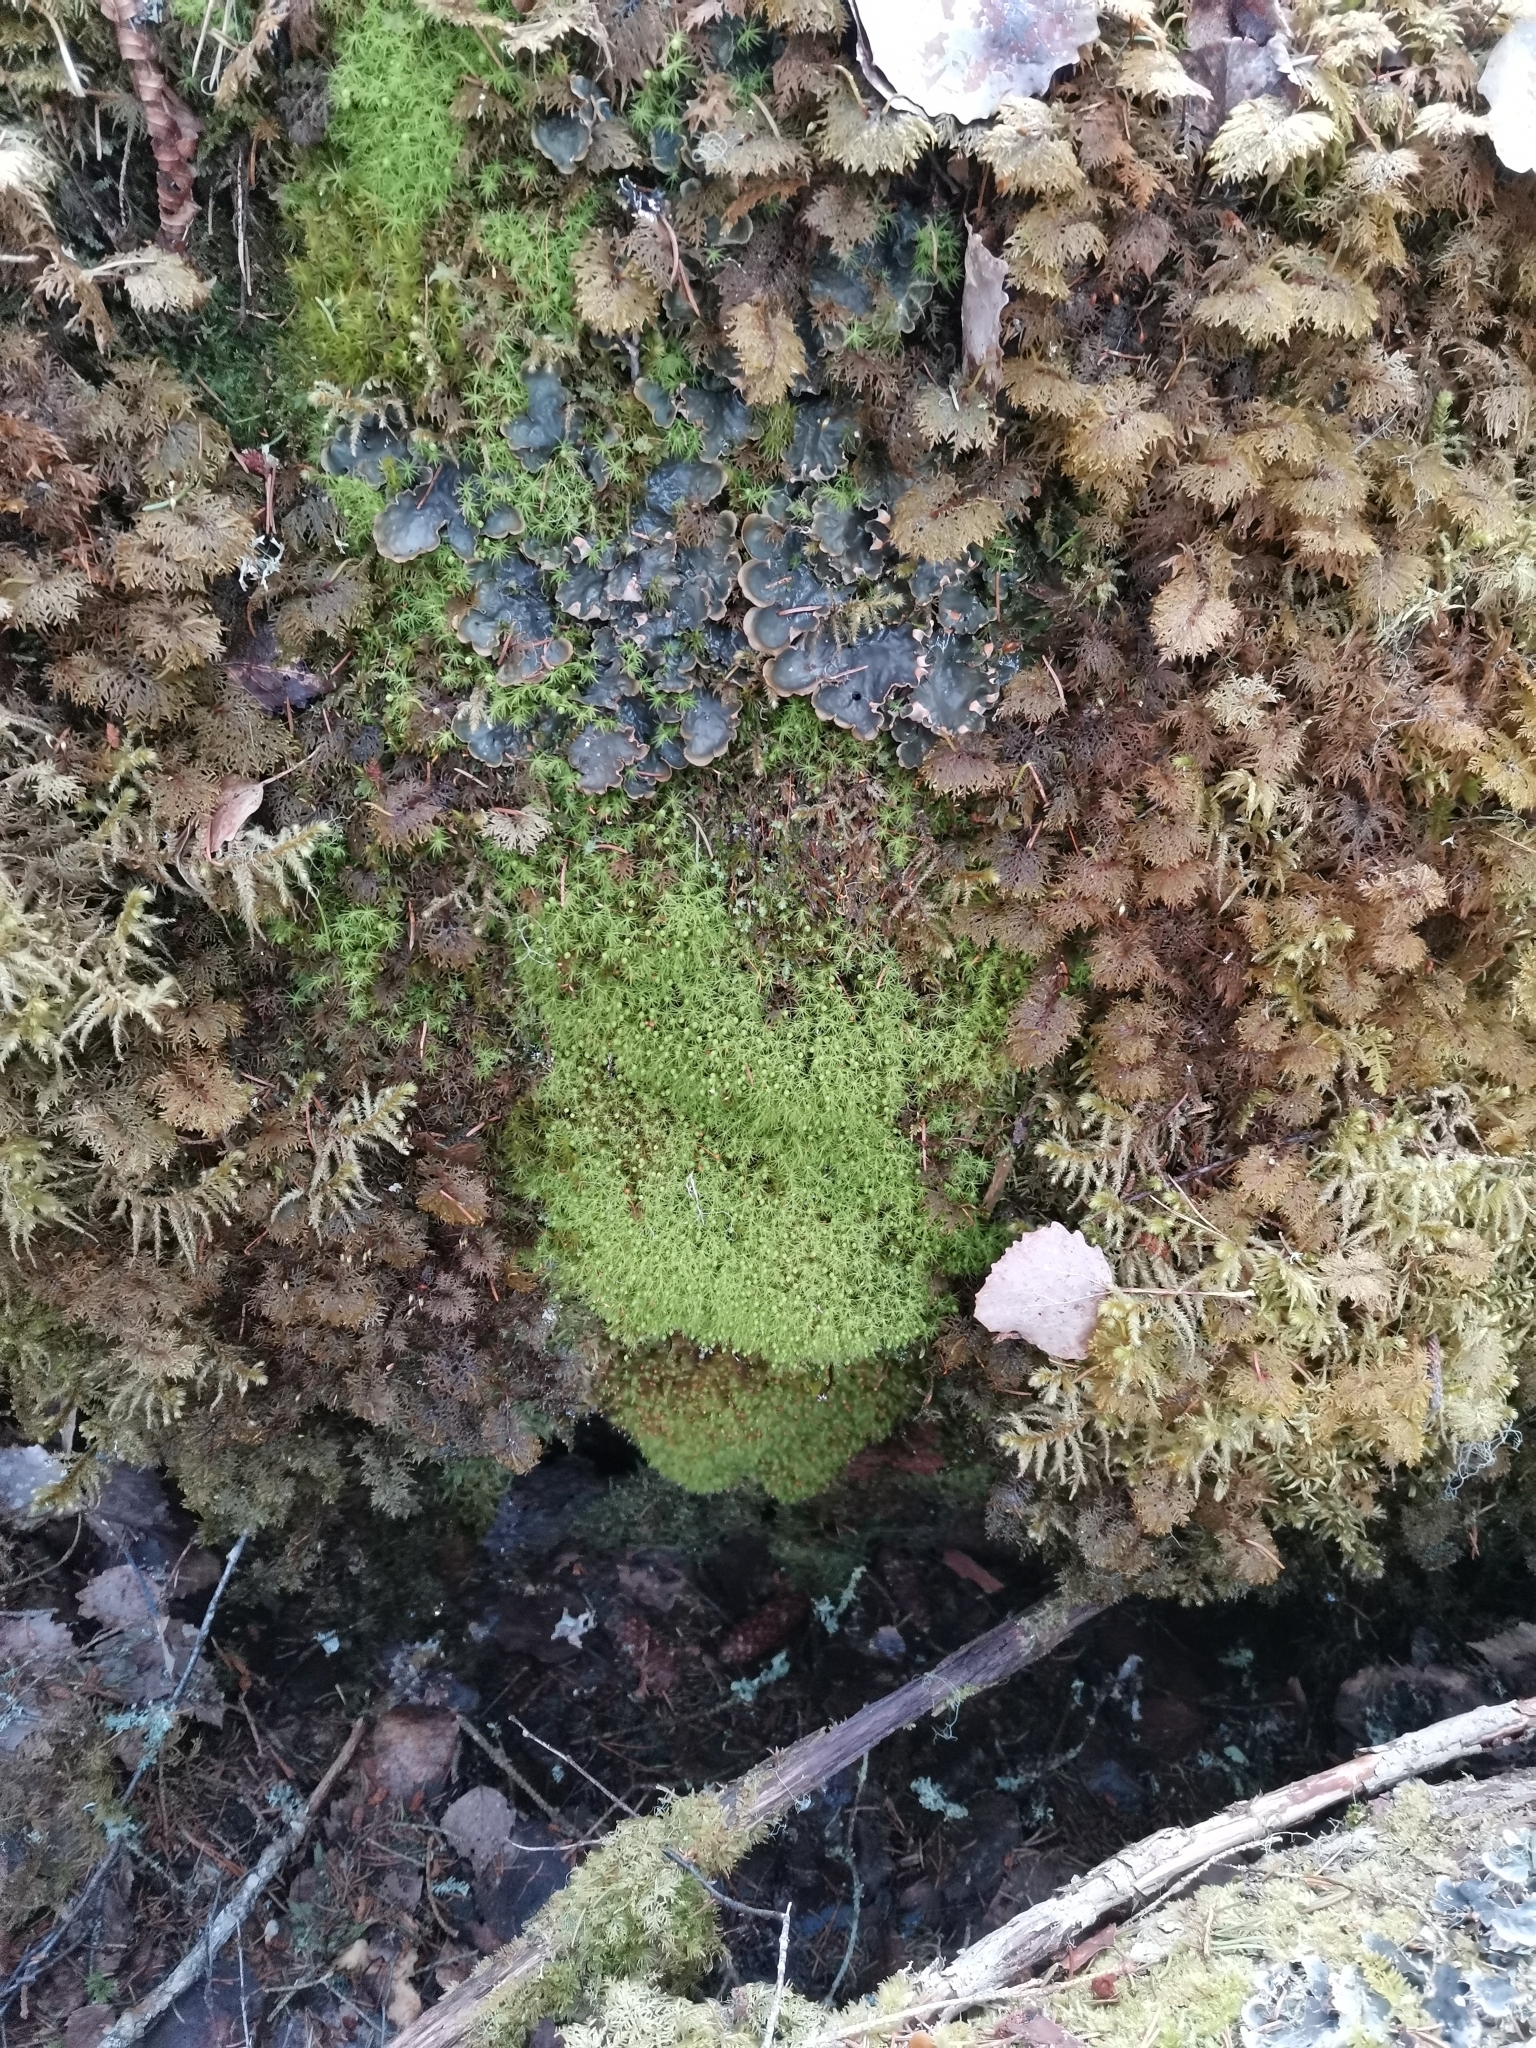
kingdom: Plantae
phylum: Bryophyta
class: Bryopsida
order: Bartramiales
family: Bartramiaceae
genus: Bartramia
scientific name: Bartramia ithyphylla
